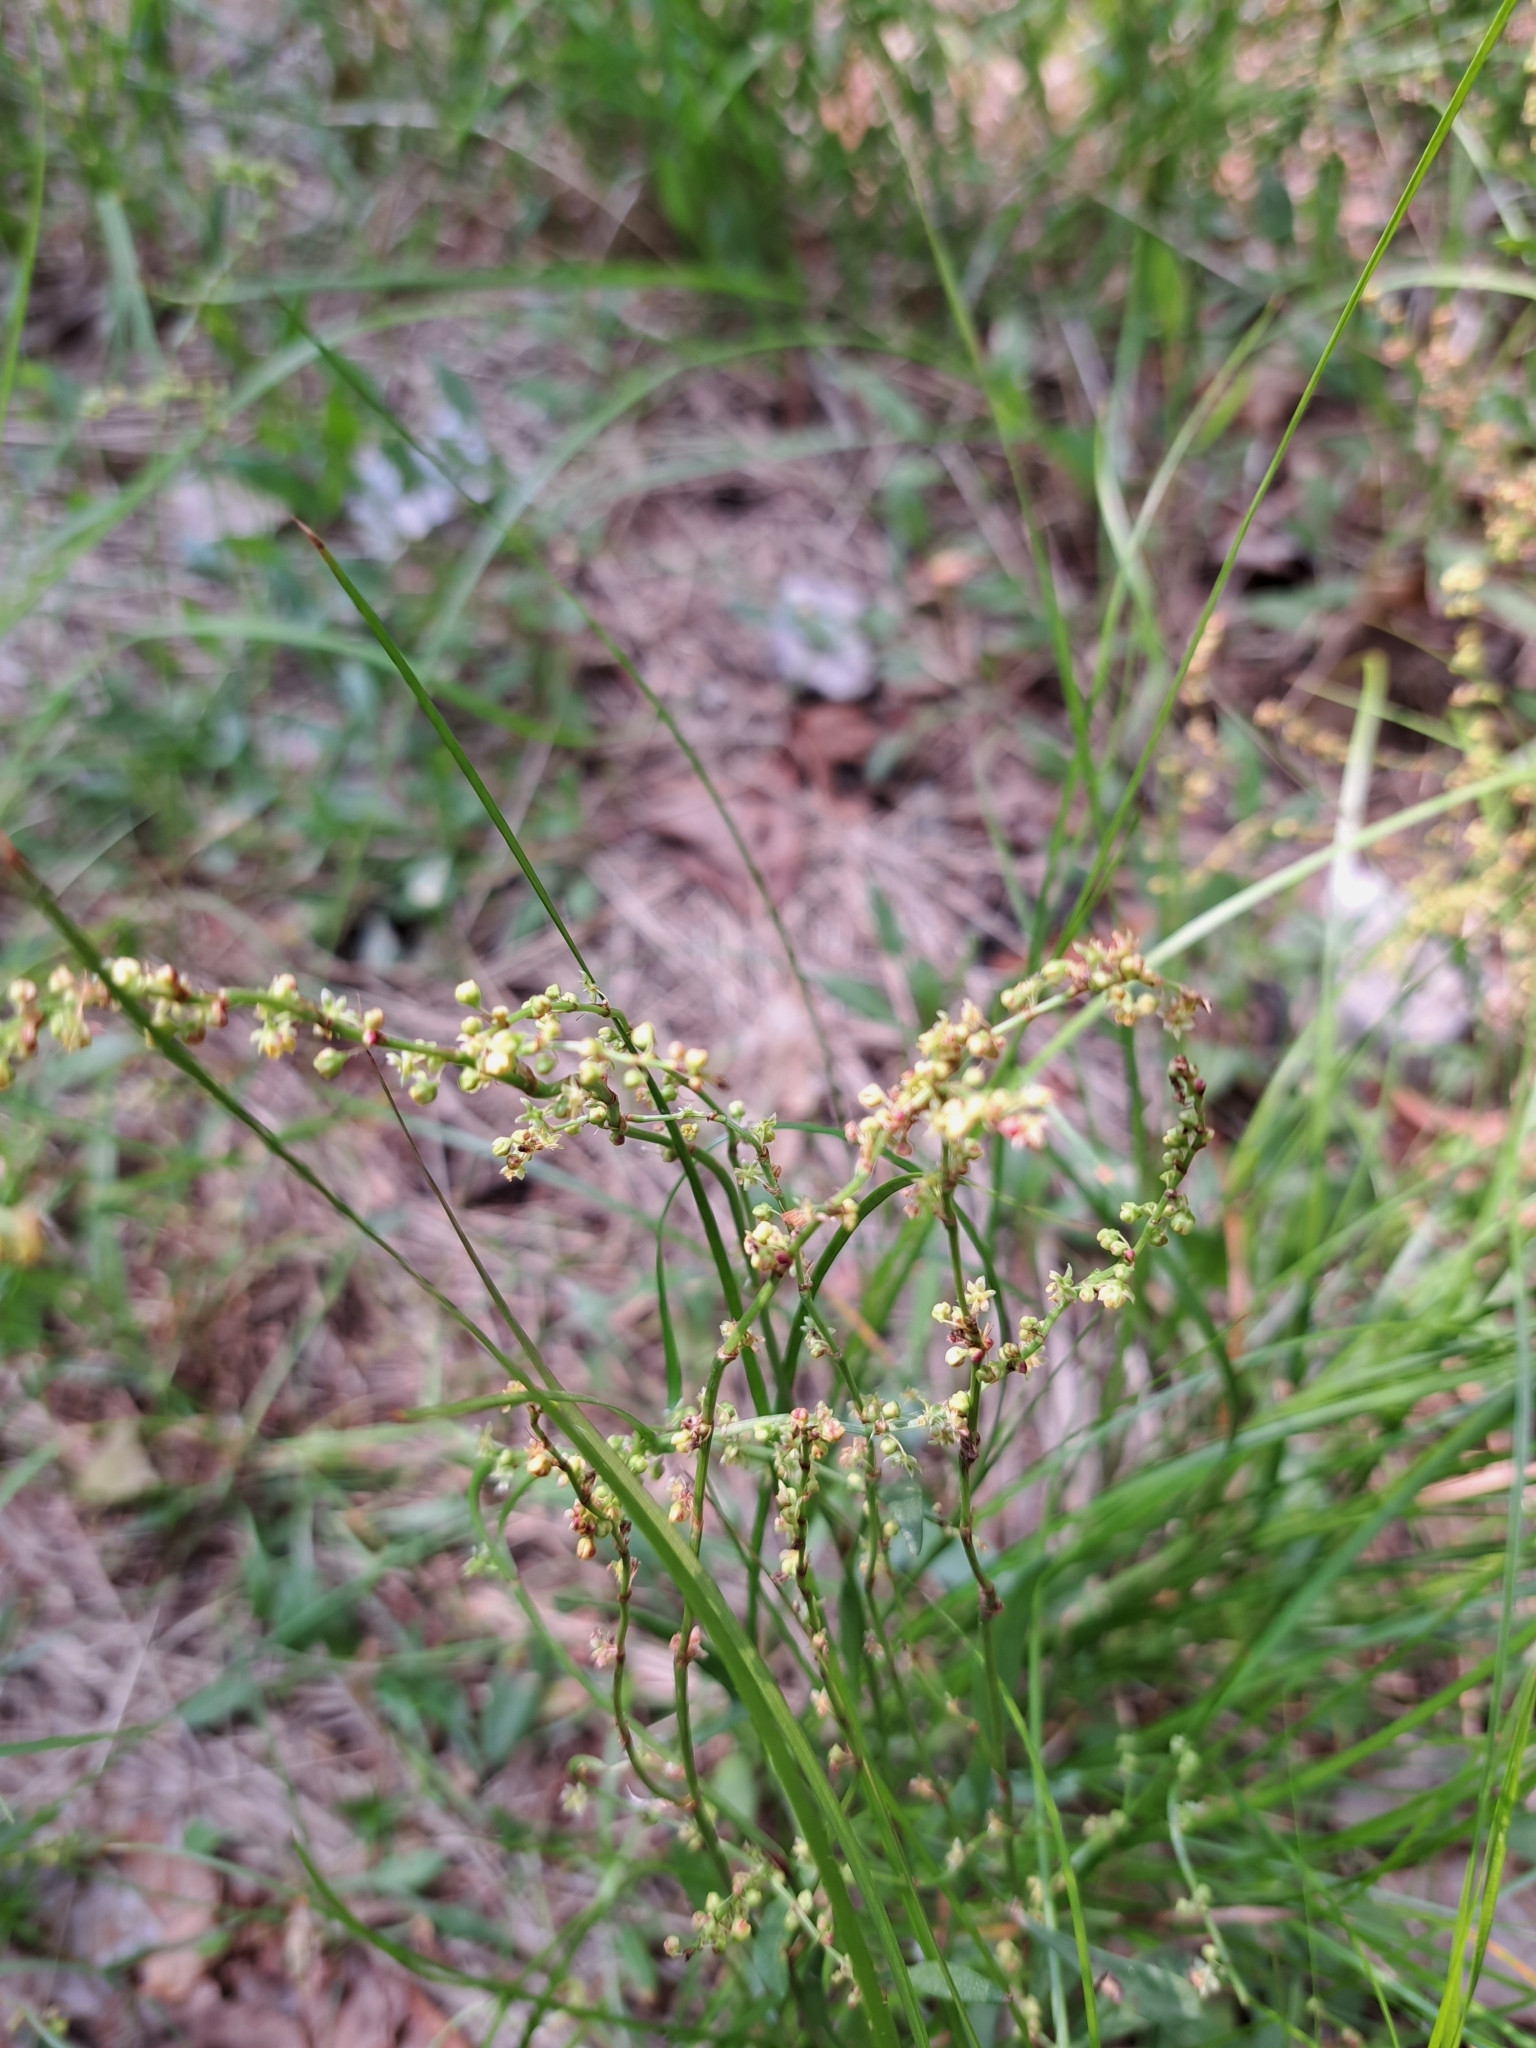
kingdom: Plantae
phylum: Tracheophyta
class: Magnoliopsida
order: Caryophyllales
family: Polygonaceae
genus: Rumex
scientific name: Rumex acetosella
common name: Common sheep sorrel
